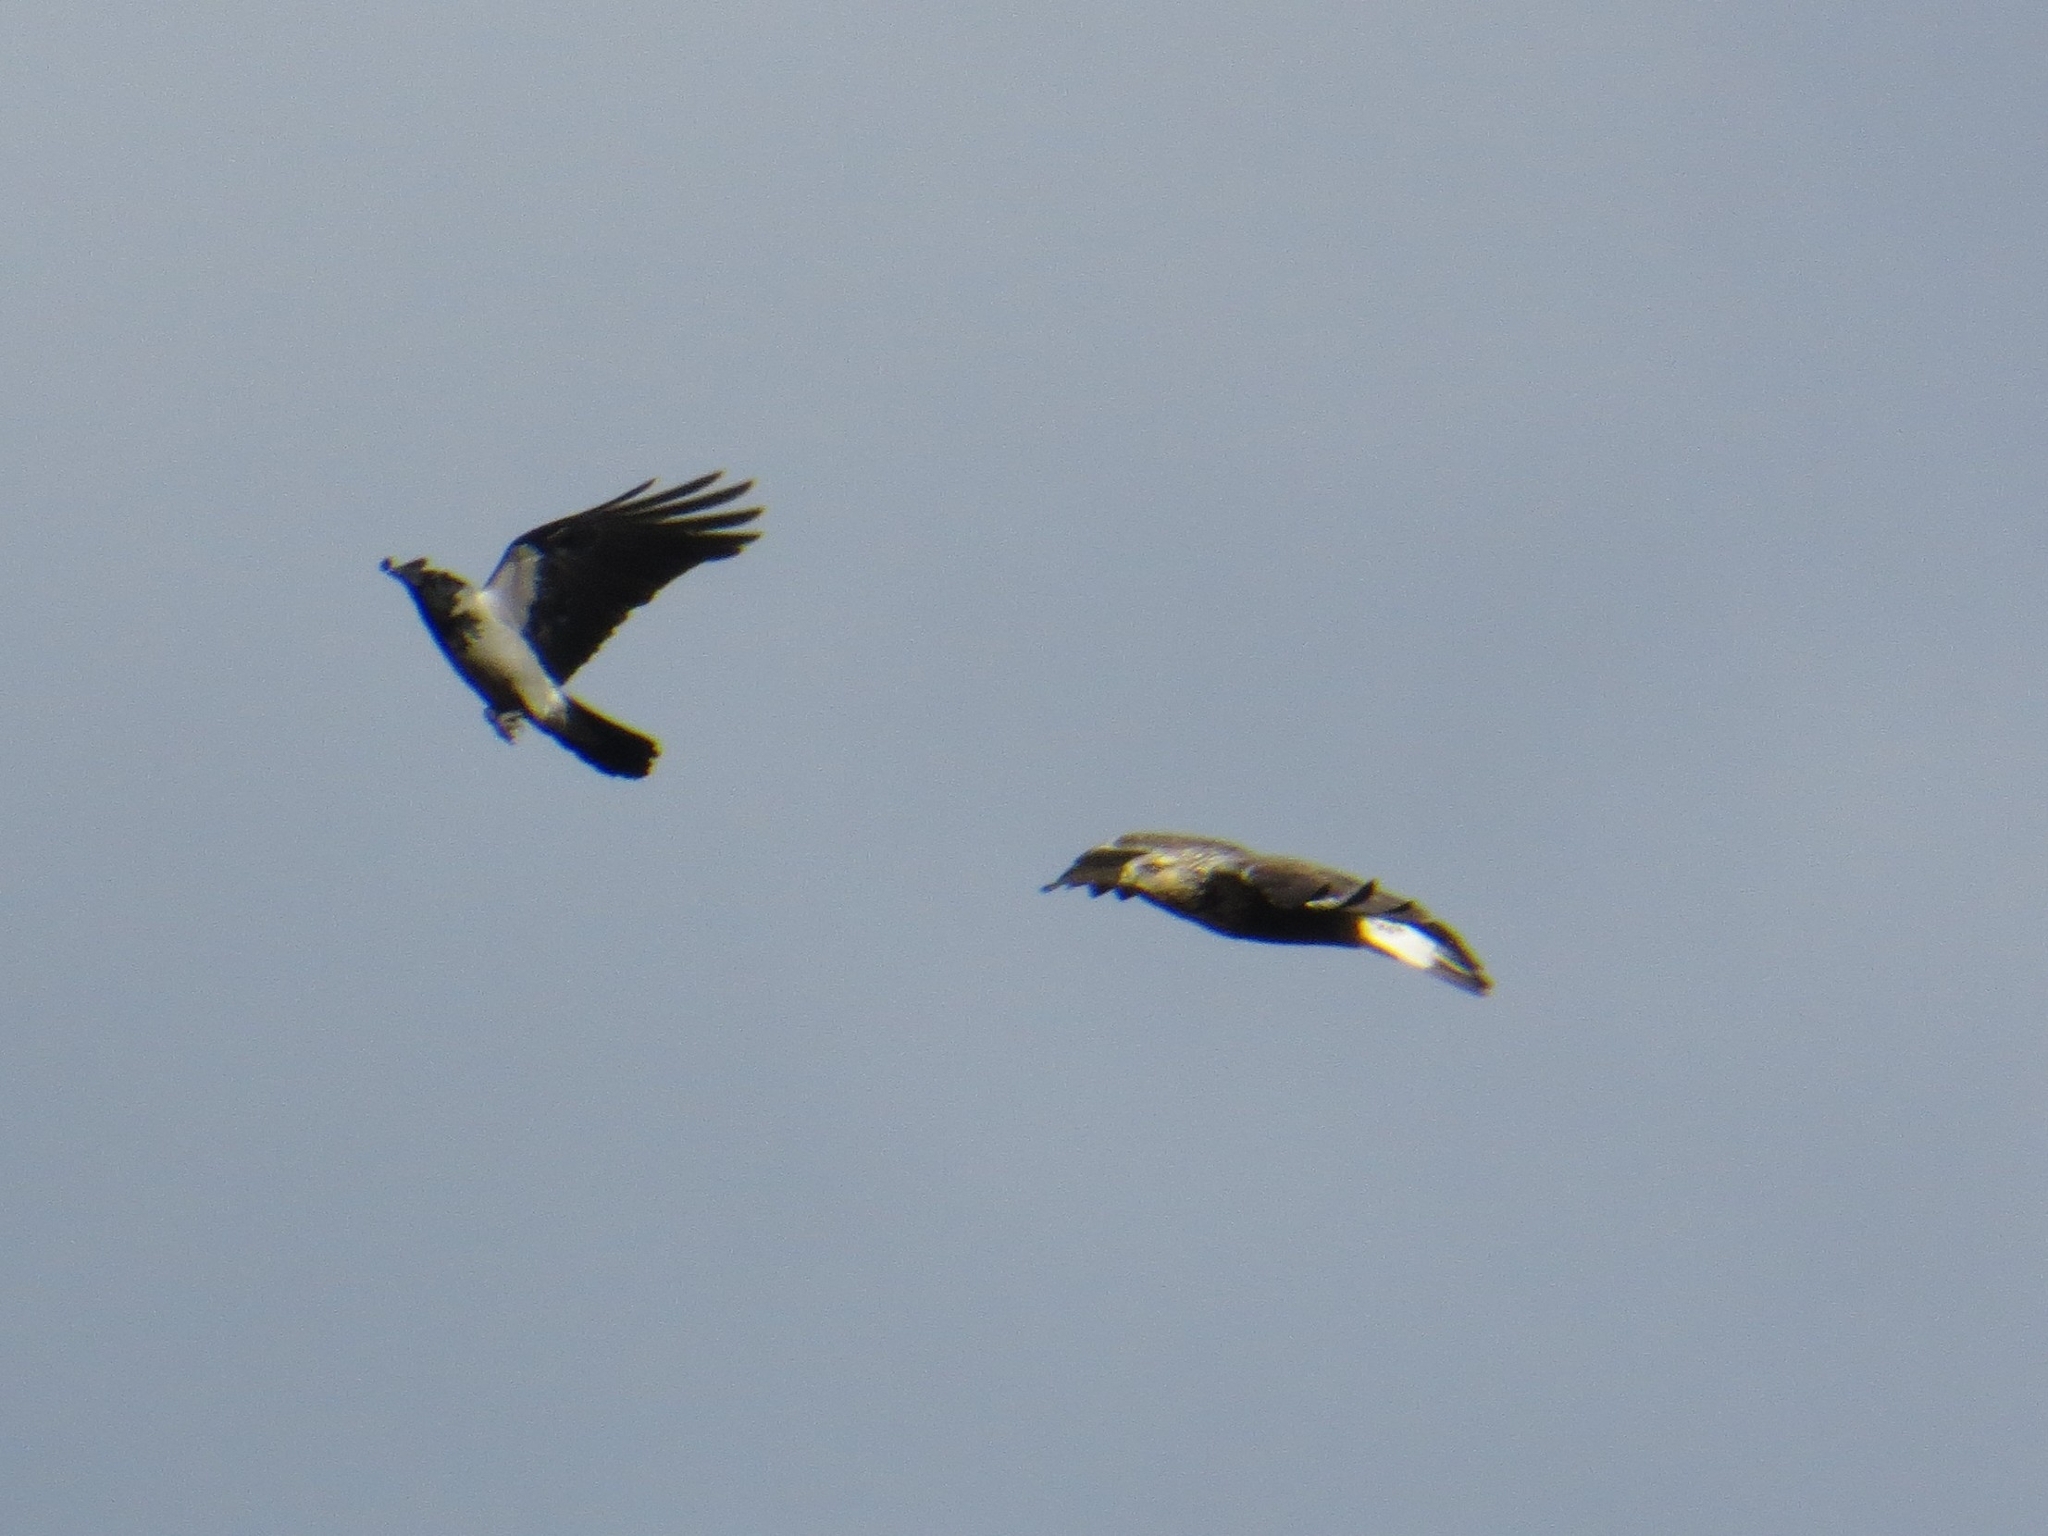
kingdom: Animalia
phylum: Chordata
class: Aves
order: Passeriformes
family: Corvidae
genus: Corvus
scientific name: Corvus cornix
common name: Hooded crow
